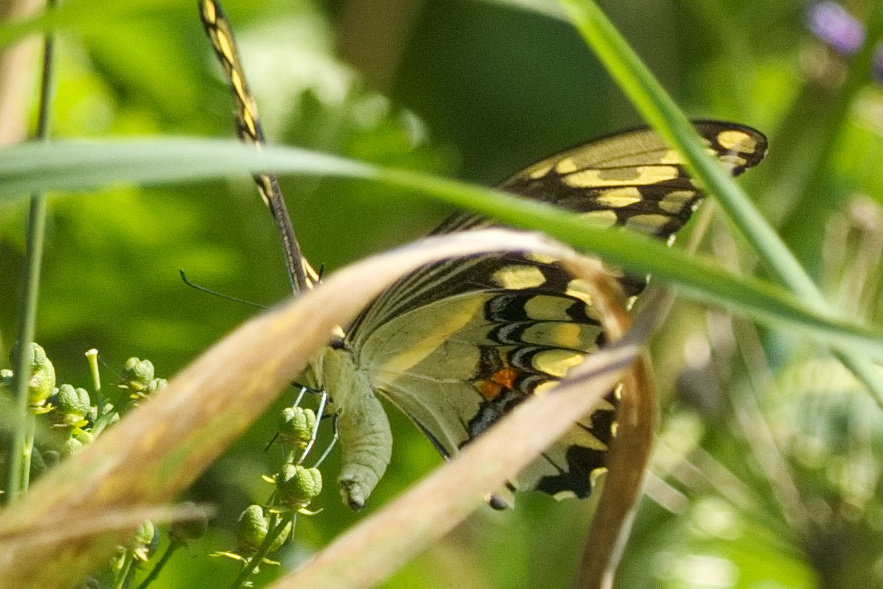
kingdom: Animalia
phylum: Arthropoda
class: Insecta
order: Lepidoptera
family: Papilionidae
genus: Papilio
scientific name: Papilio cresphontes
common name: Giant swallowtail
